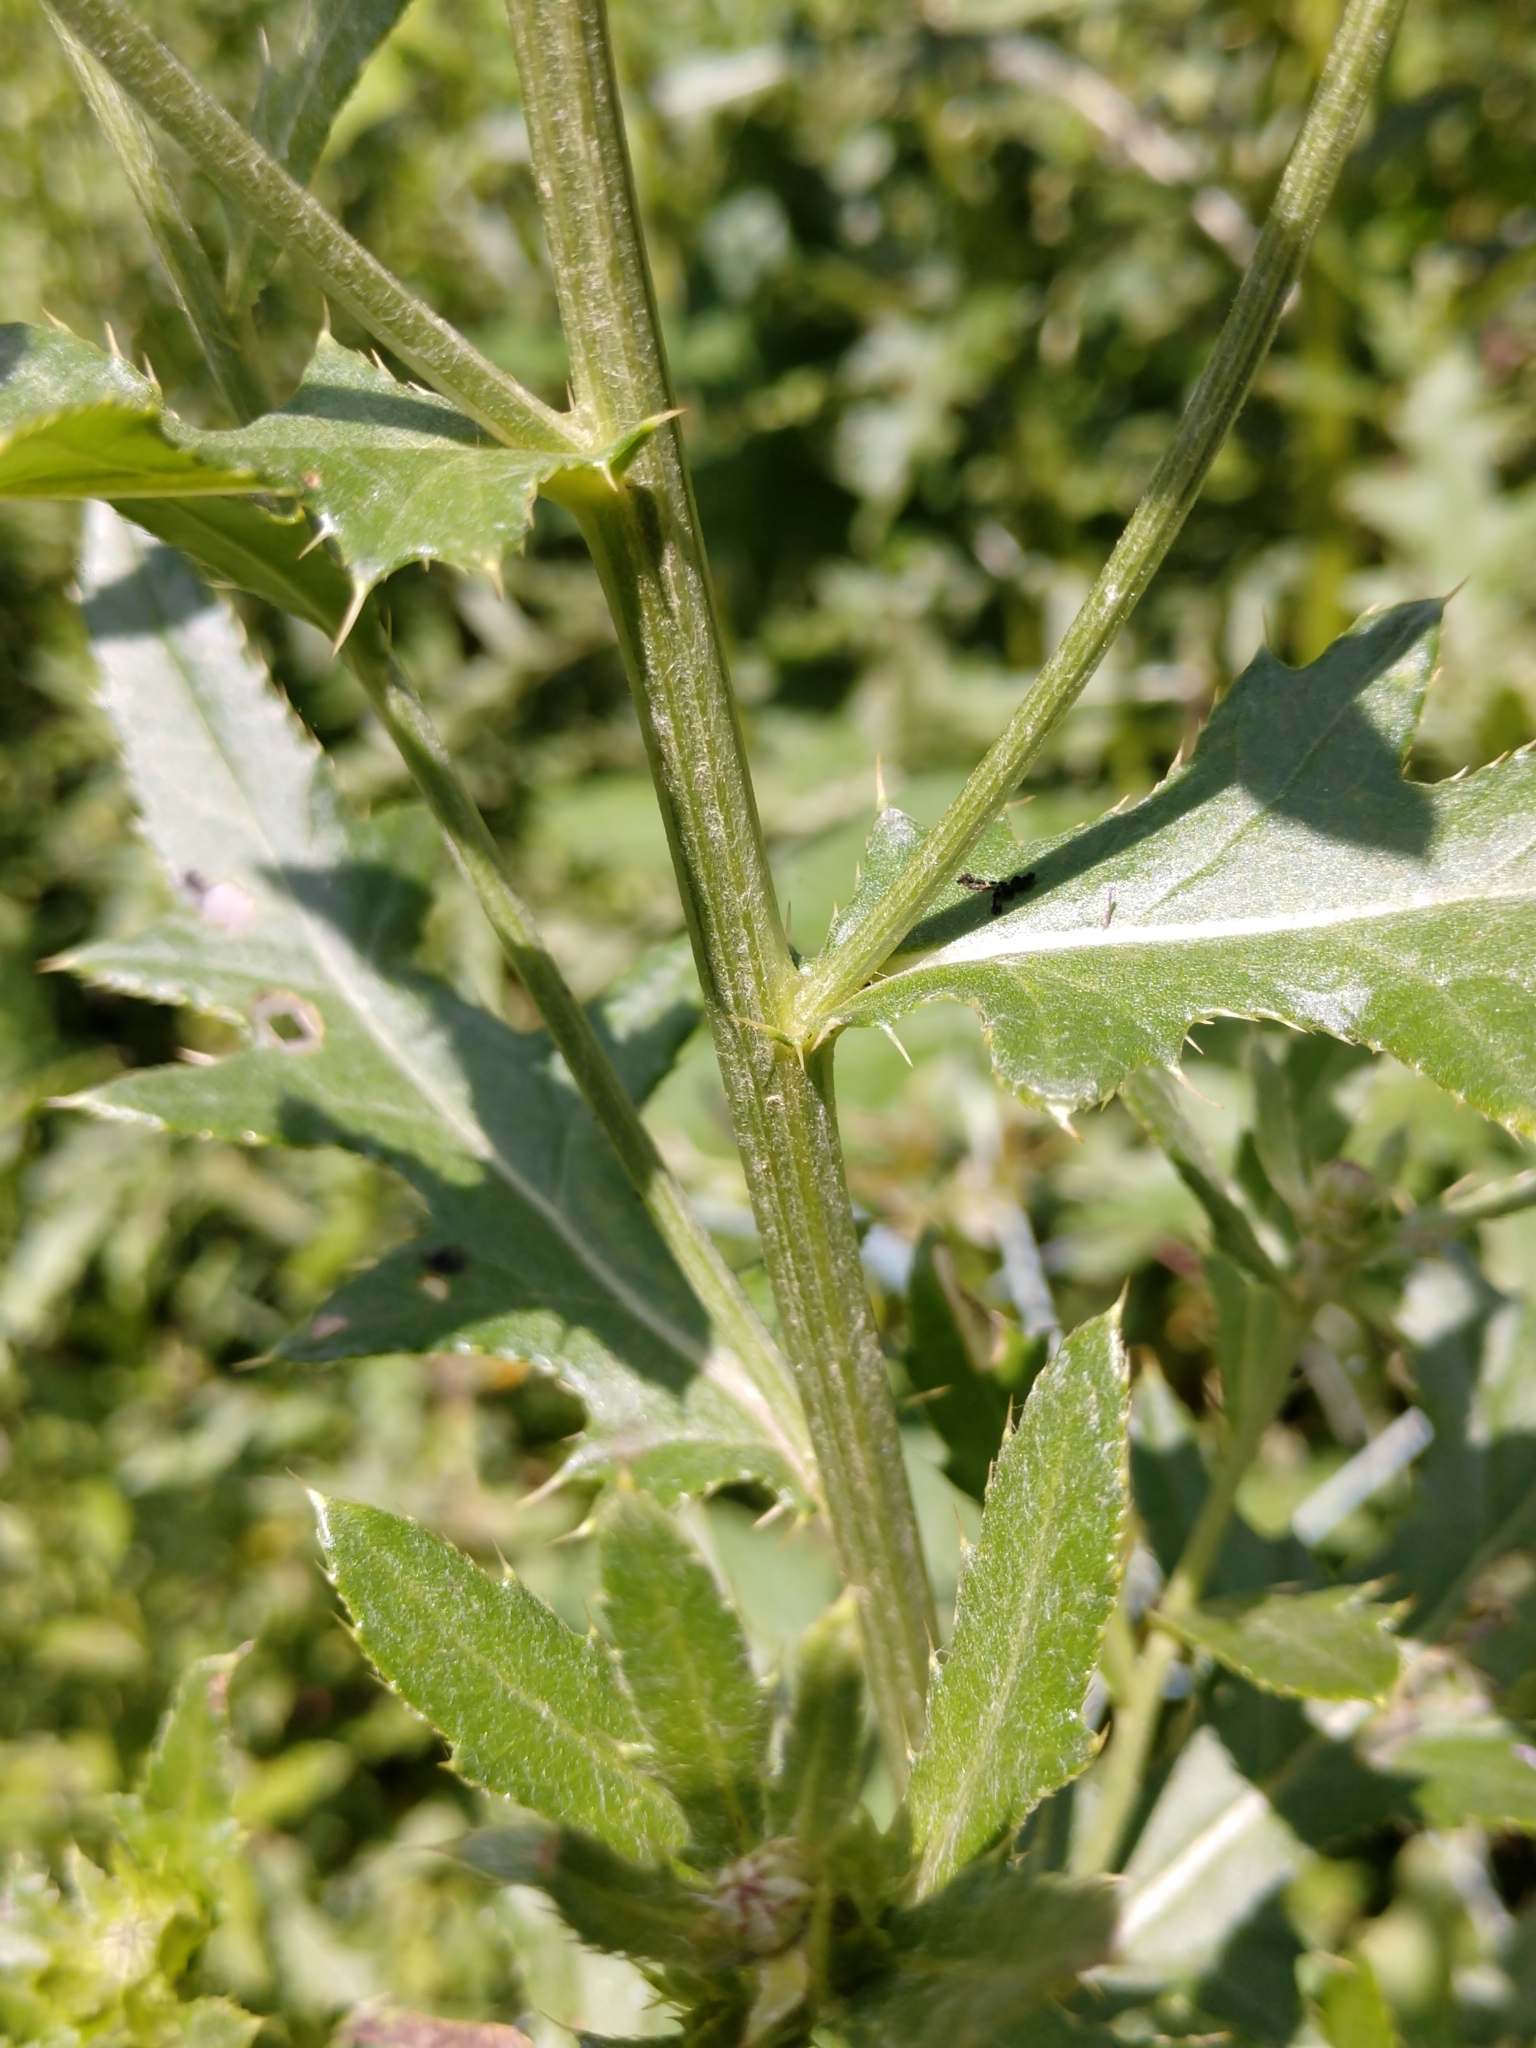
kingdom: Plantae
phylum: Tracheophyta
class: Magnoliopsida
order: Asterales
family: Asteraceae
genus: Cirsium
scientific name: Cirsium arvense
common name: Creeping thistle
